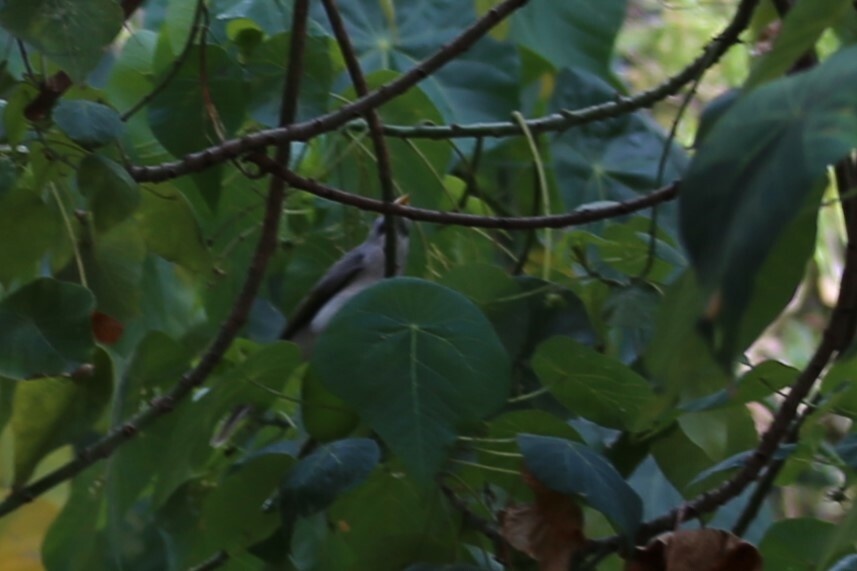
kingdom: Animalia
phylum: Chordata
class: Aves
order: Passeriformes
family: Meliphagidae
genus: Manorina
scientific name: Manorina melanocephala
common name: Noisy miner
